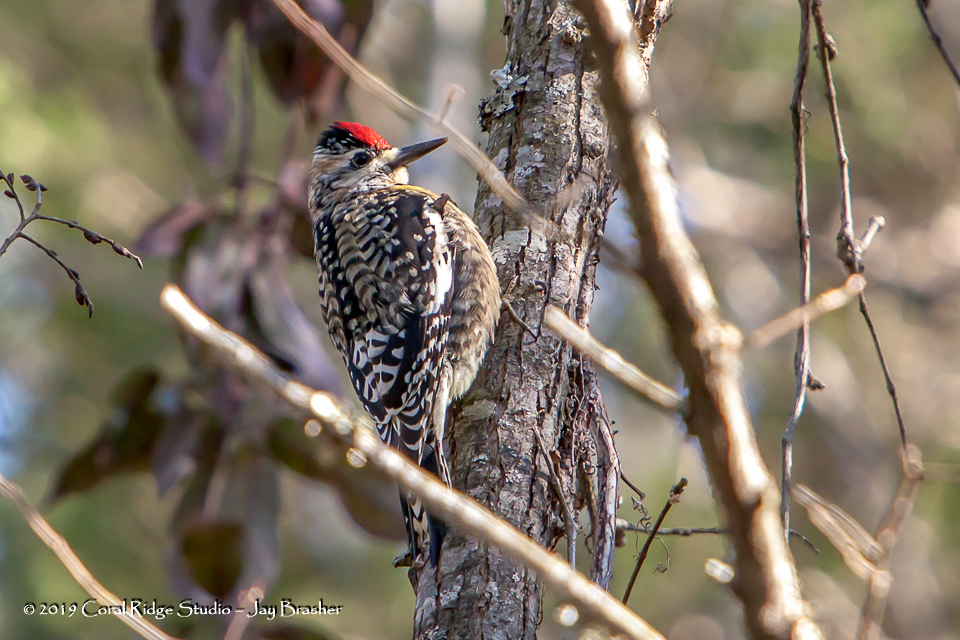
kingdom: Animalia
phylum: Chordata
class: Aves
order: Piciformes
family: Picidae
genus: Sphyrapicus
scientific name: Sphyrapicus varius
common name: Yellow-bellied sapsucker
